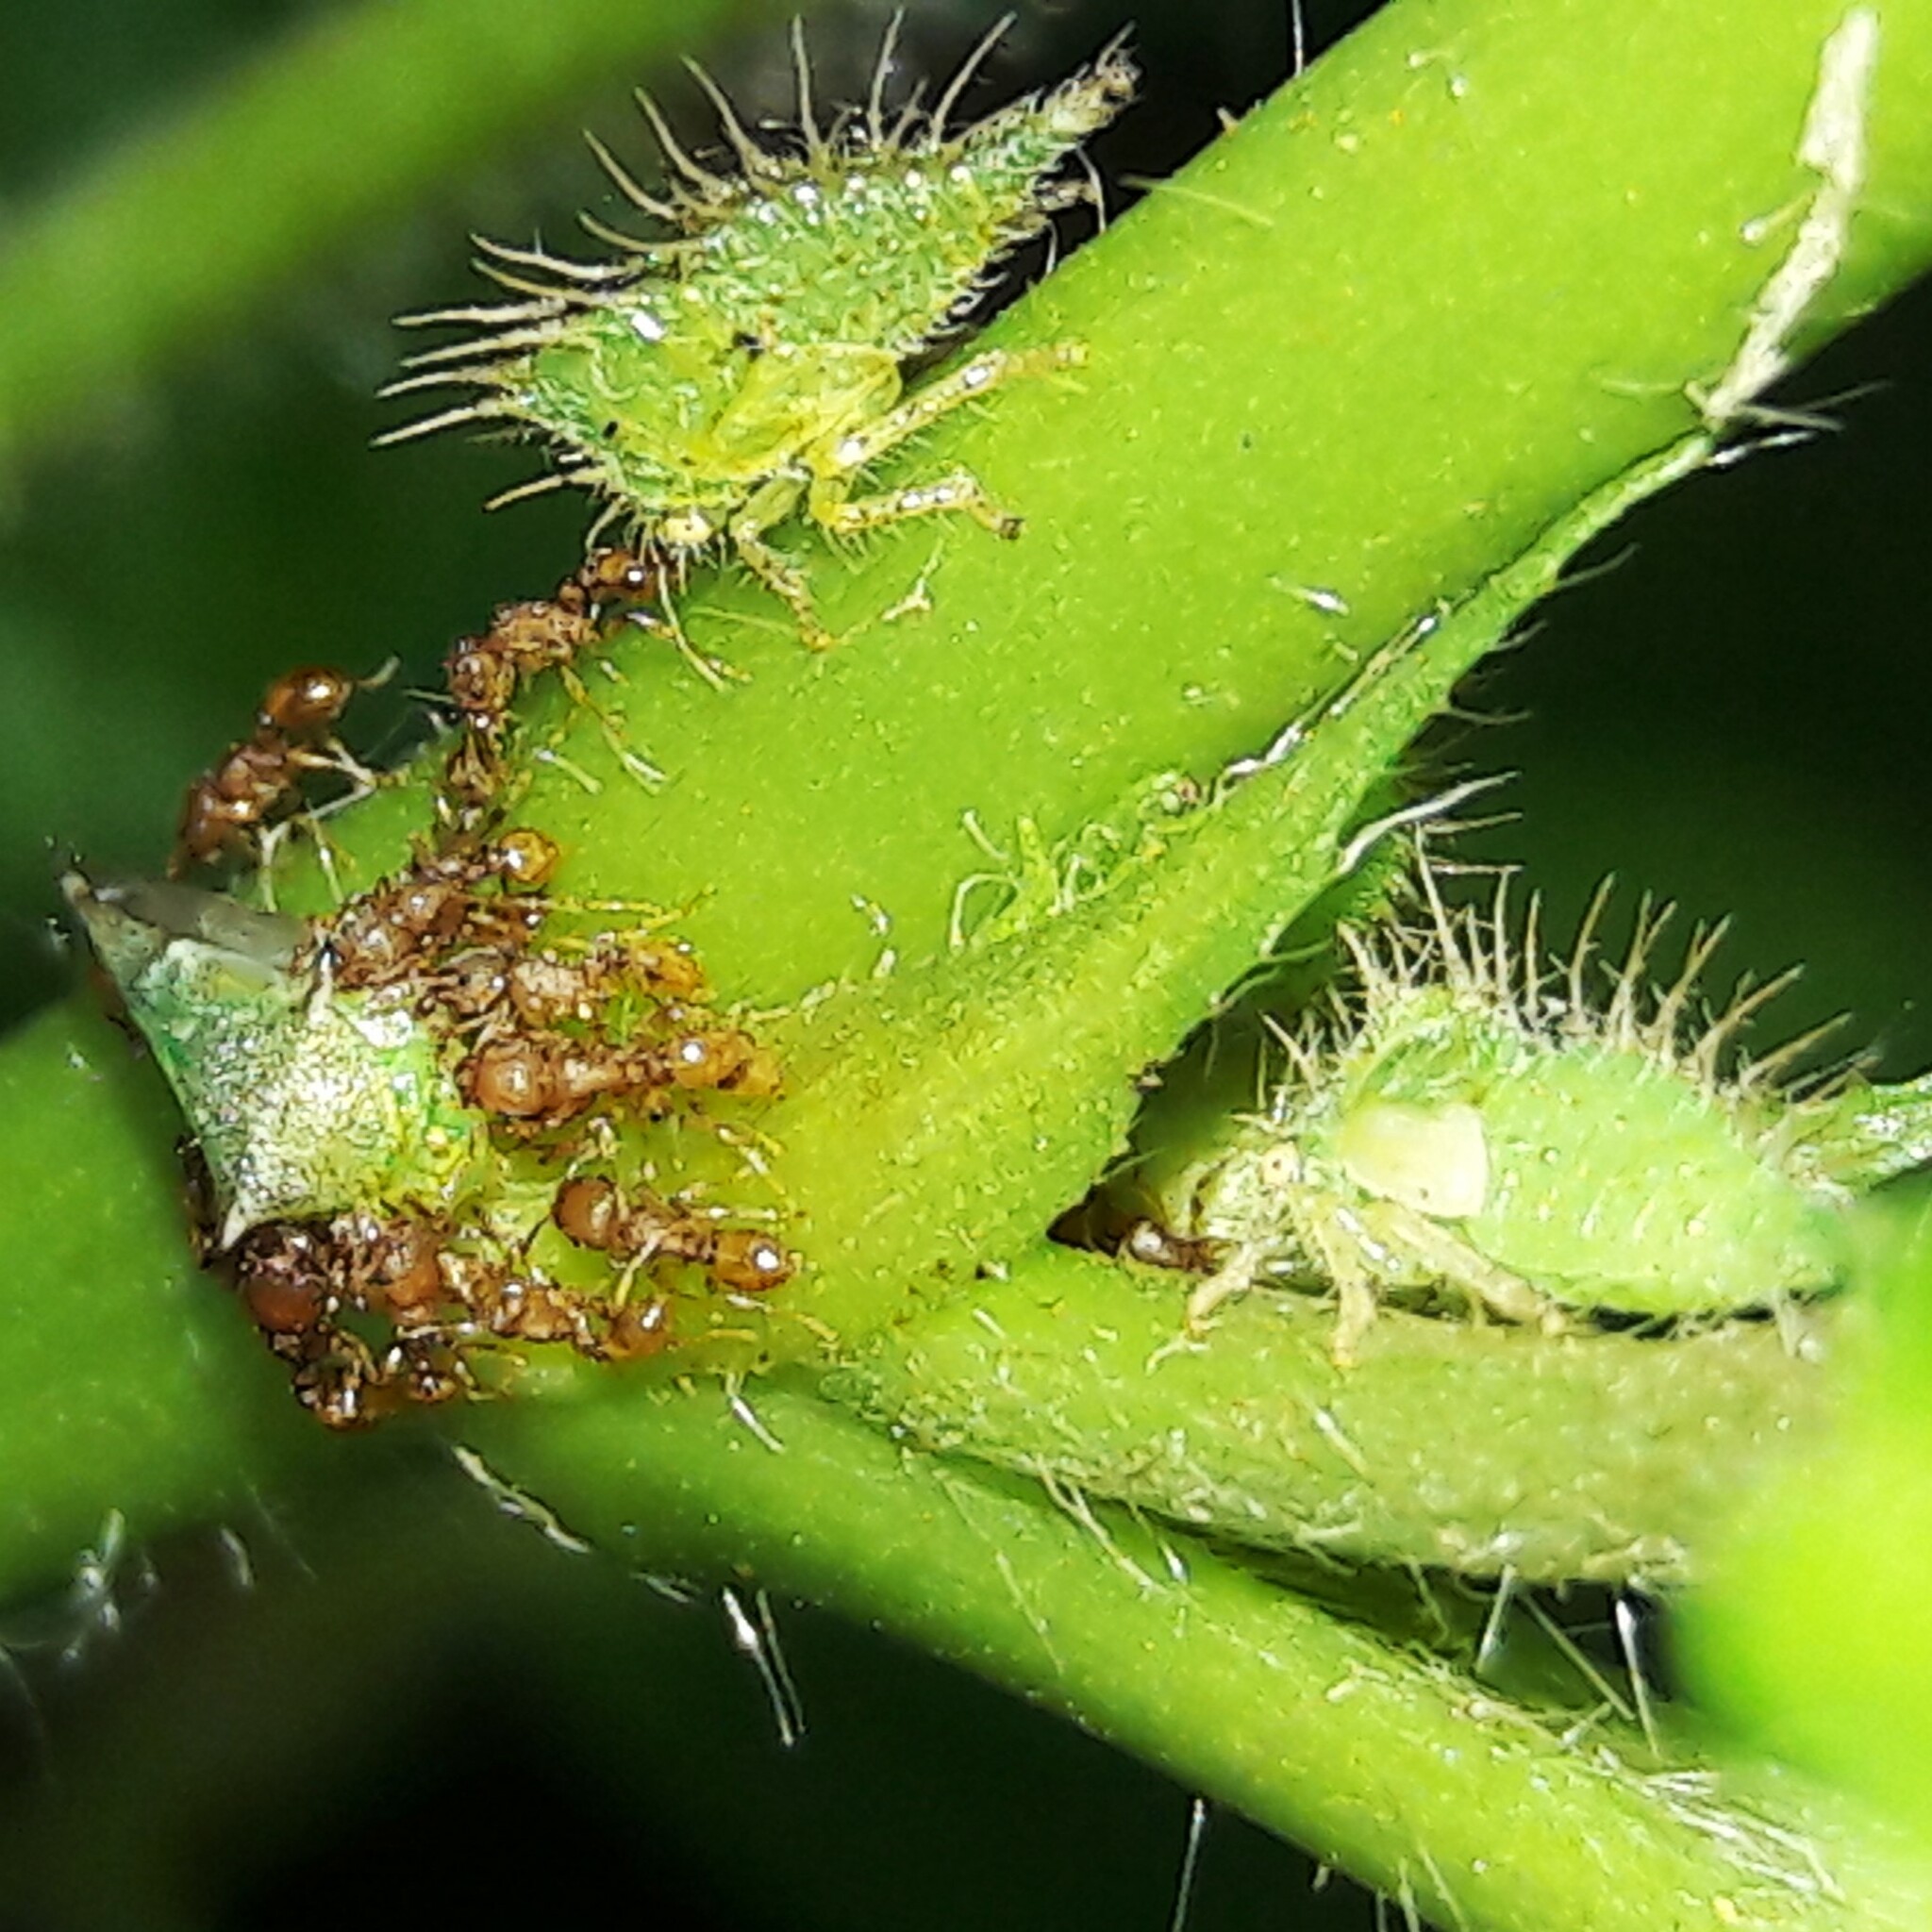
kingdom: Animalia
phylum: Arthropoda
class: Insecta
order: Hymenoptera
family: Formicidae
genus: Wasmannia
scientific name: Wasmannia
